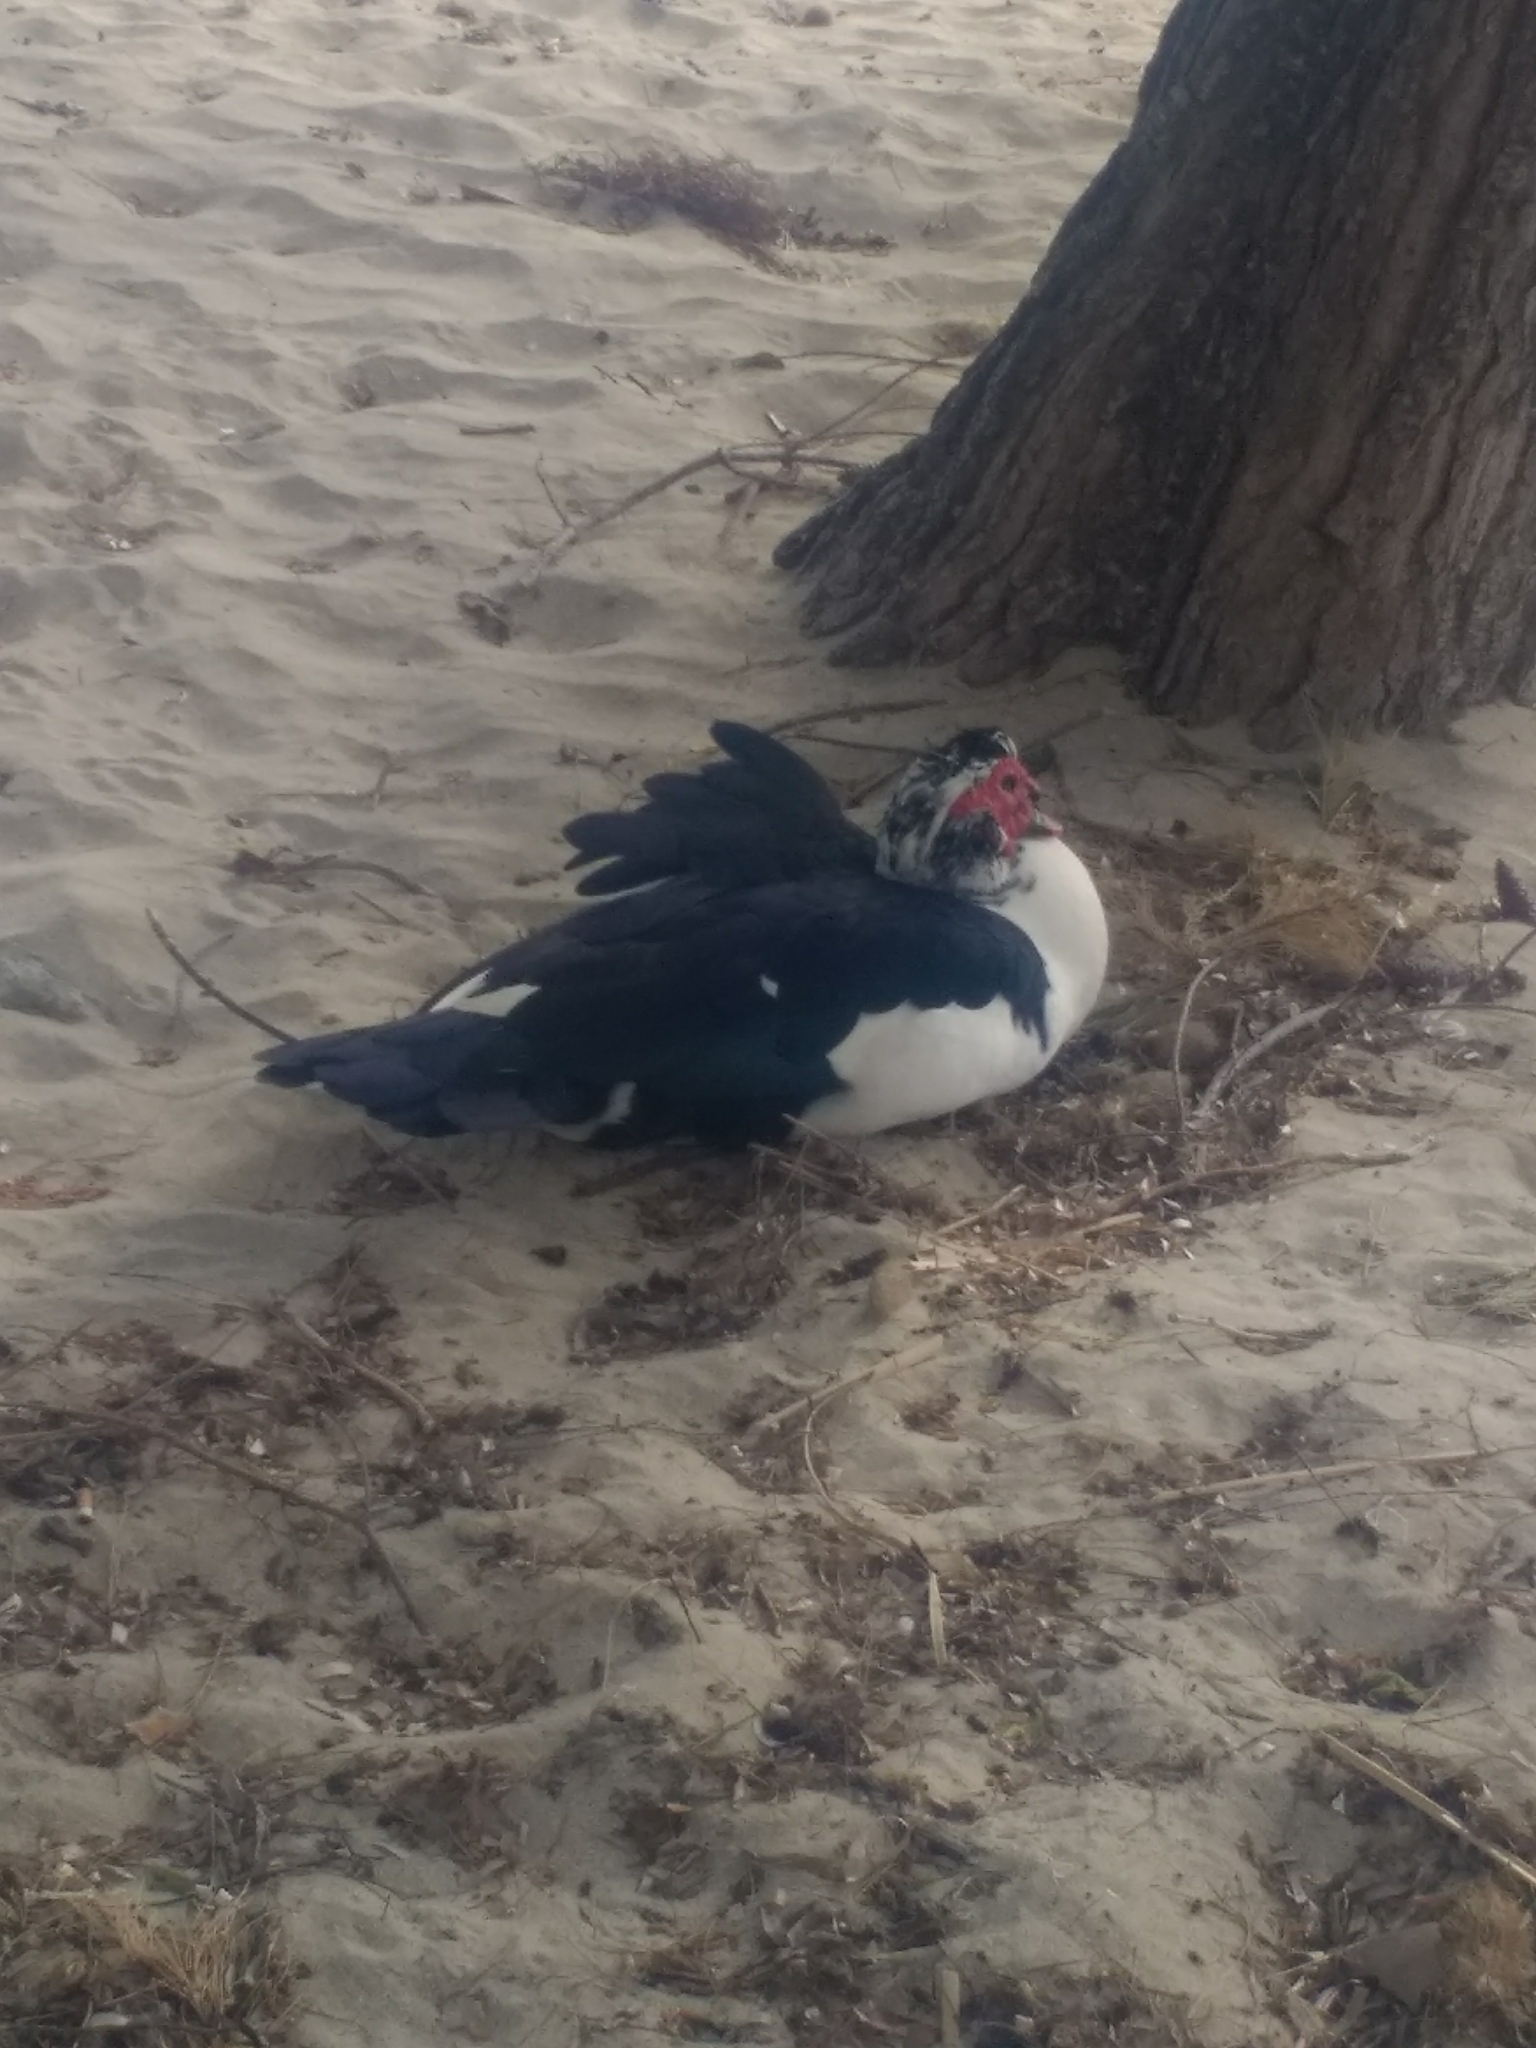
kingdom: Animalia
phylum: Chordata
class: Aves
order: Anseriformes
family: Anatidae
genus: Cairina
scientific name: Cairina moschata
